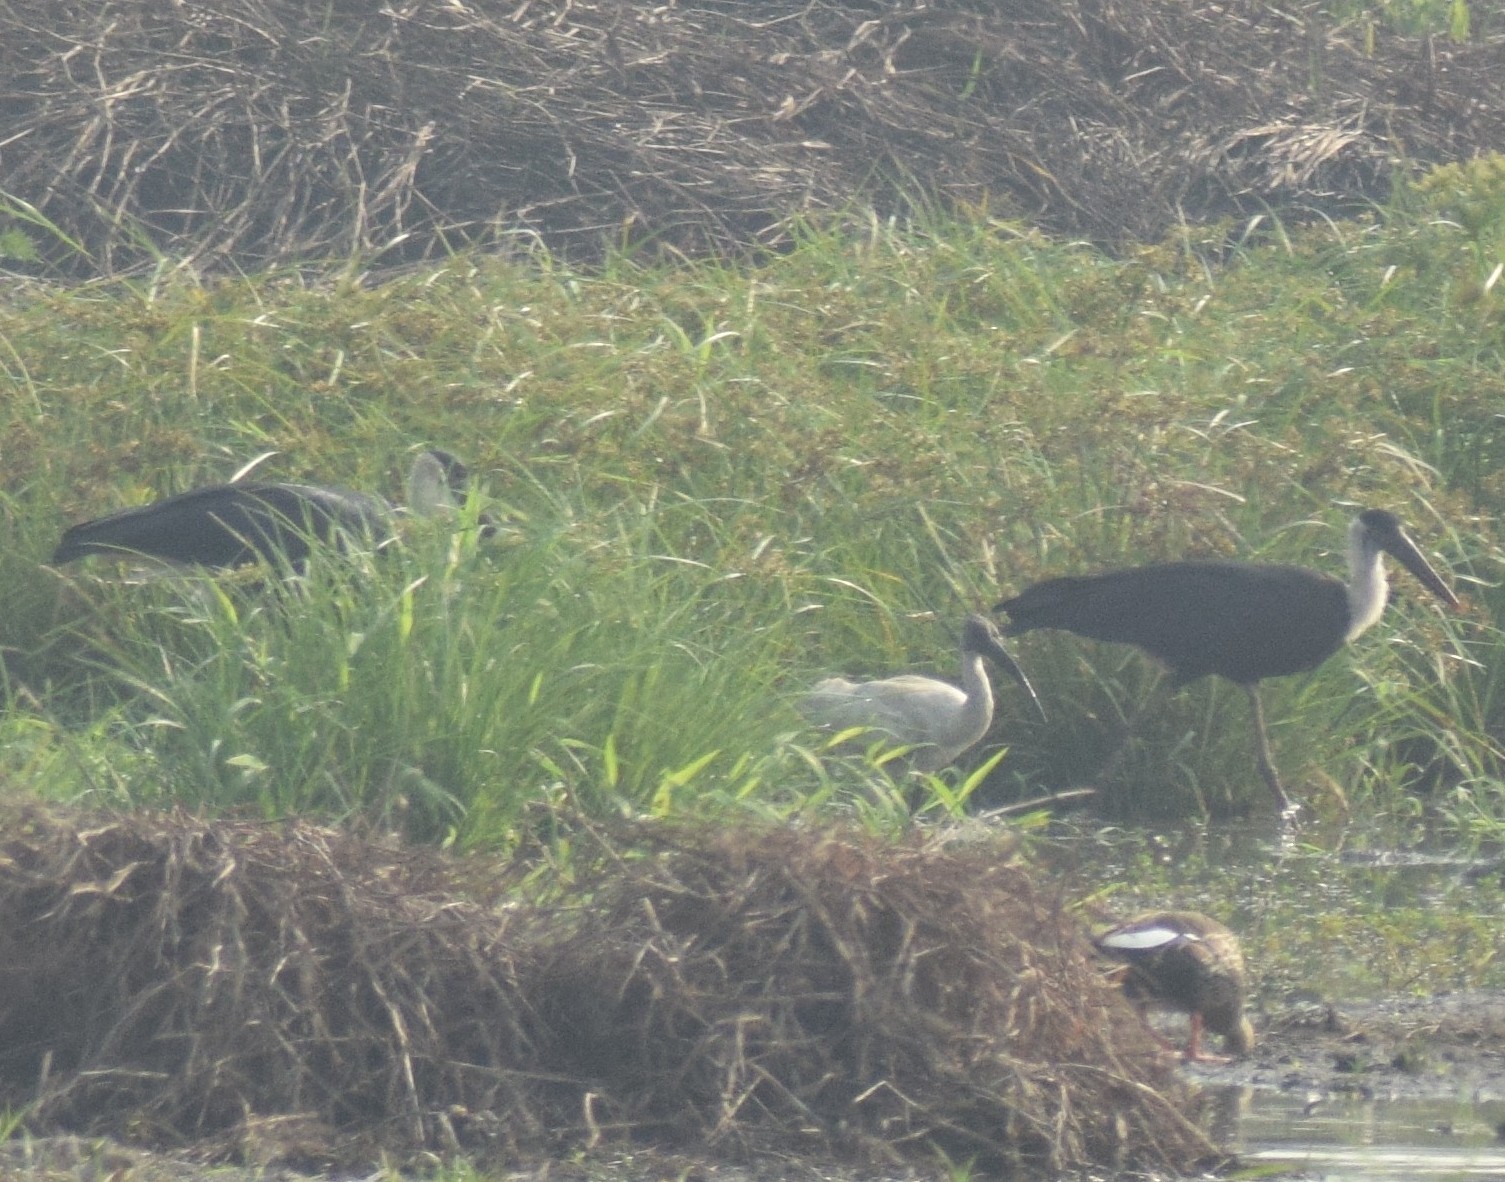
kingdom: Animalia
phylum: Chordata
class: Aves
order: Ciconiiformes
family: Ciconiidae
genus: Ciconia
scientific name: Ciconia episcopus
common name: Woolly-necked stork
